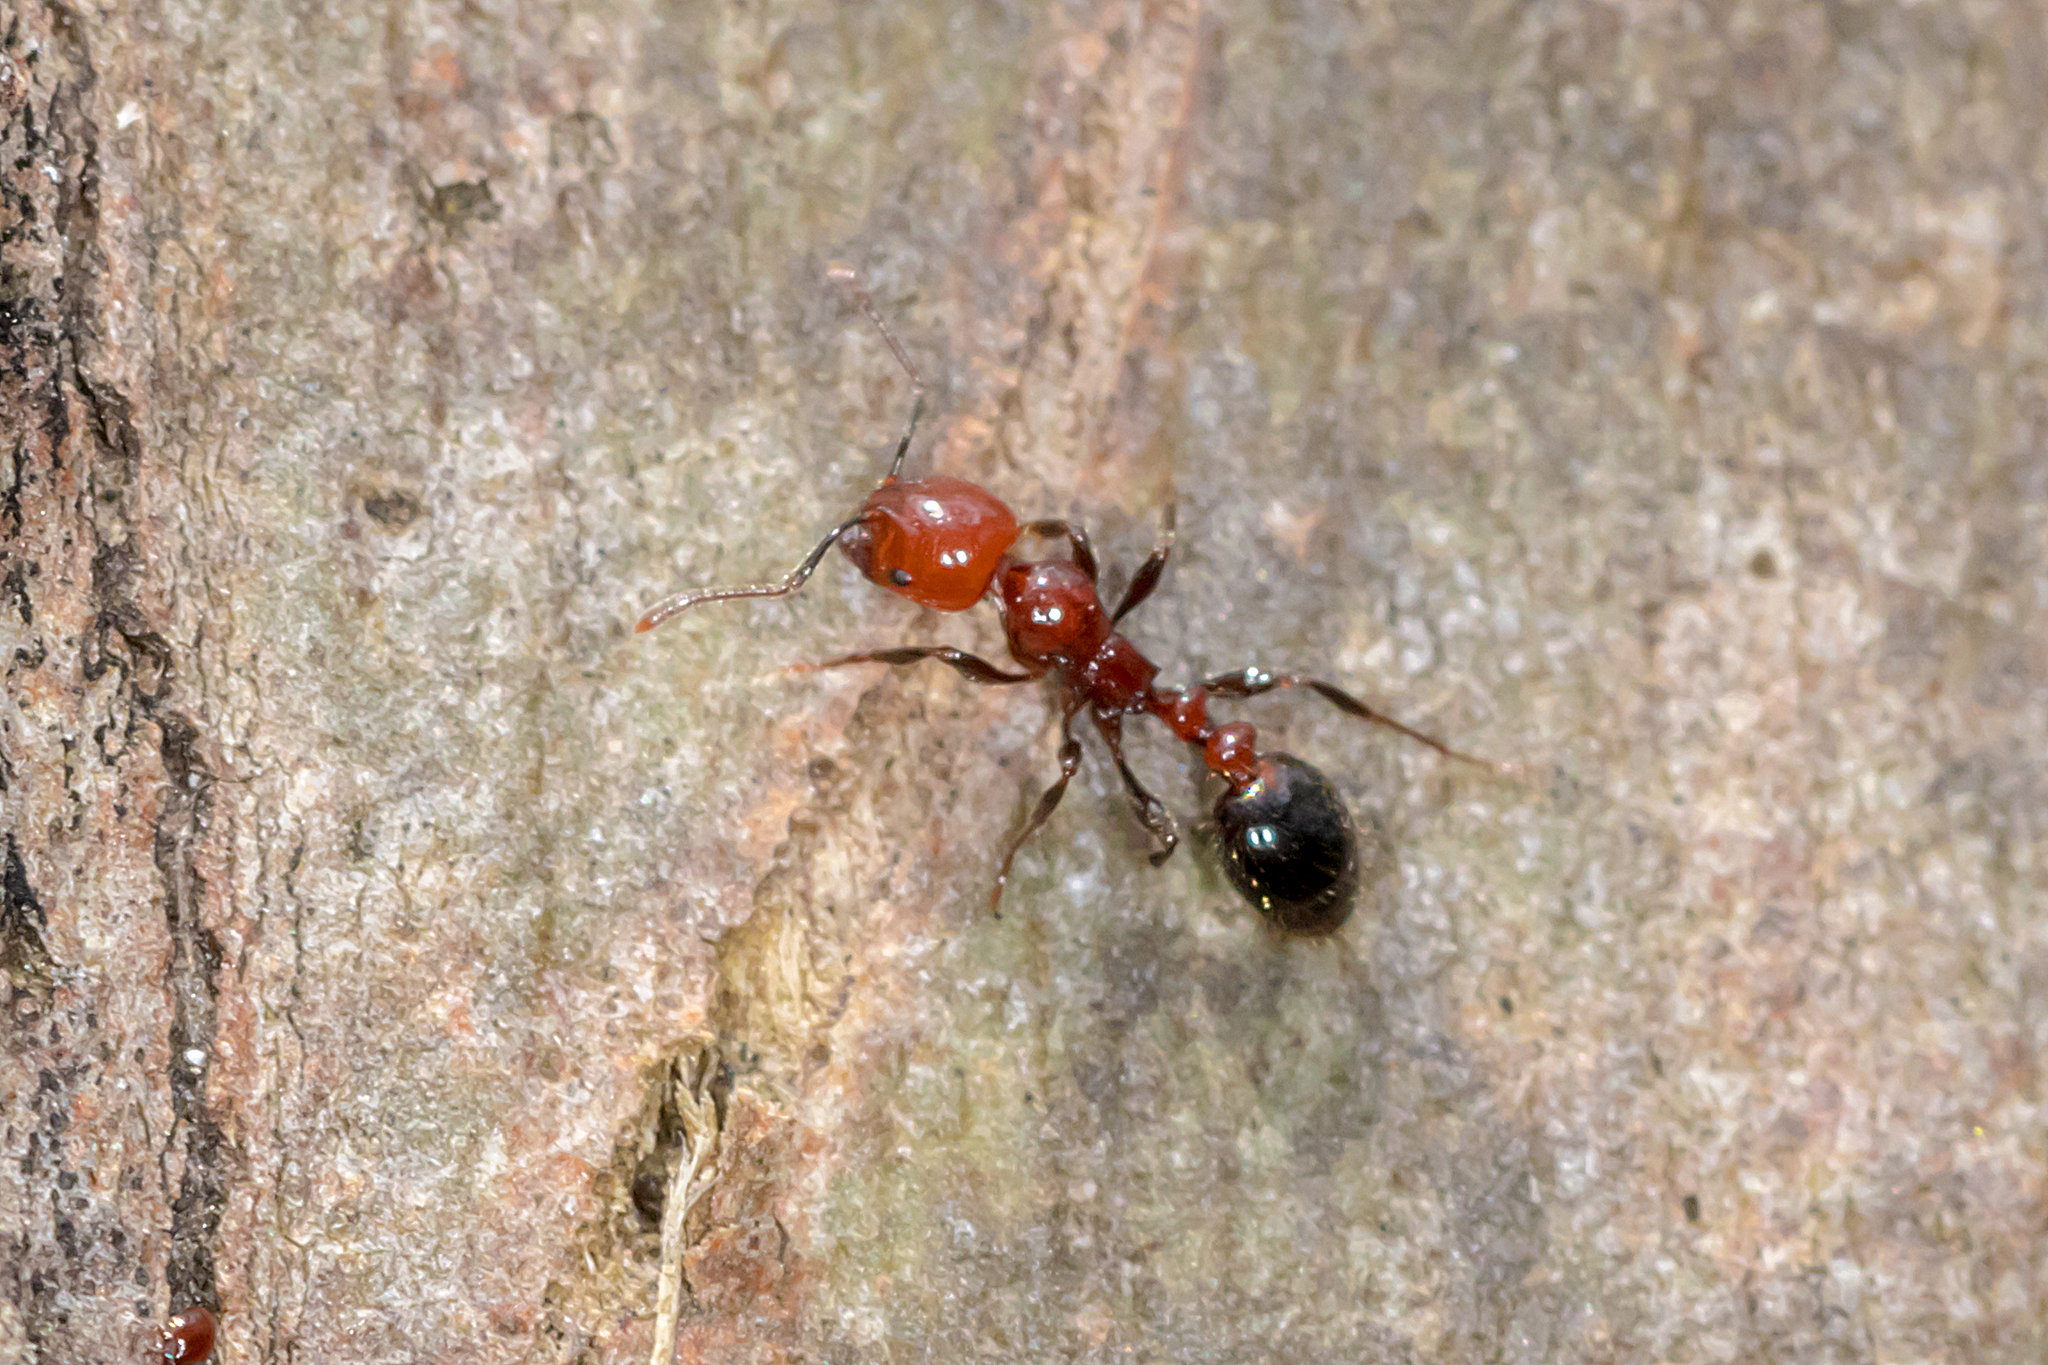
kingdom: Animalia
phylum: Arthropoda
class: Insecta
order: Hymenoptera
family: Formicidae
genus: Chelaner
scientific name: Chelaner
